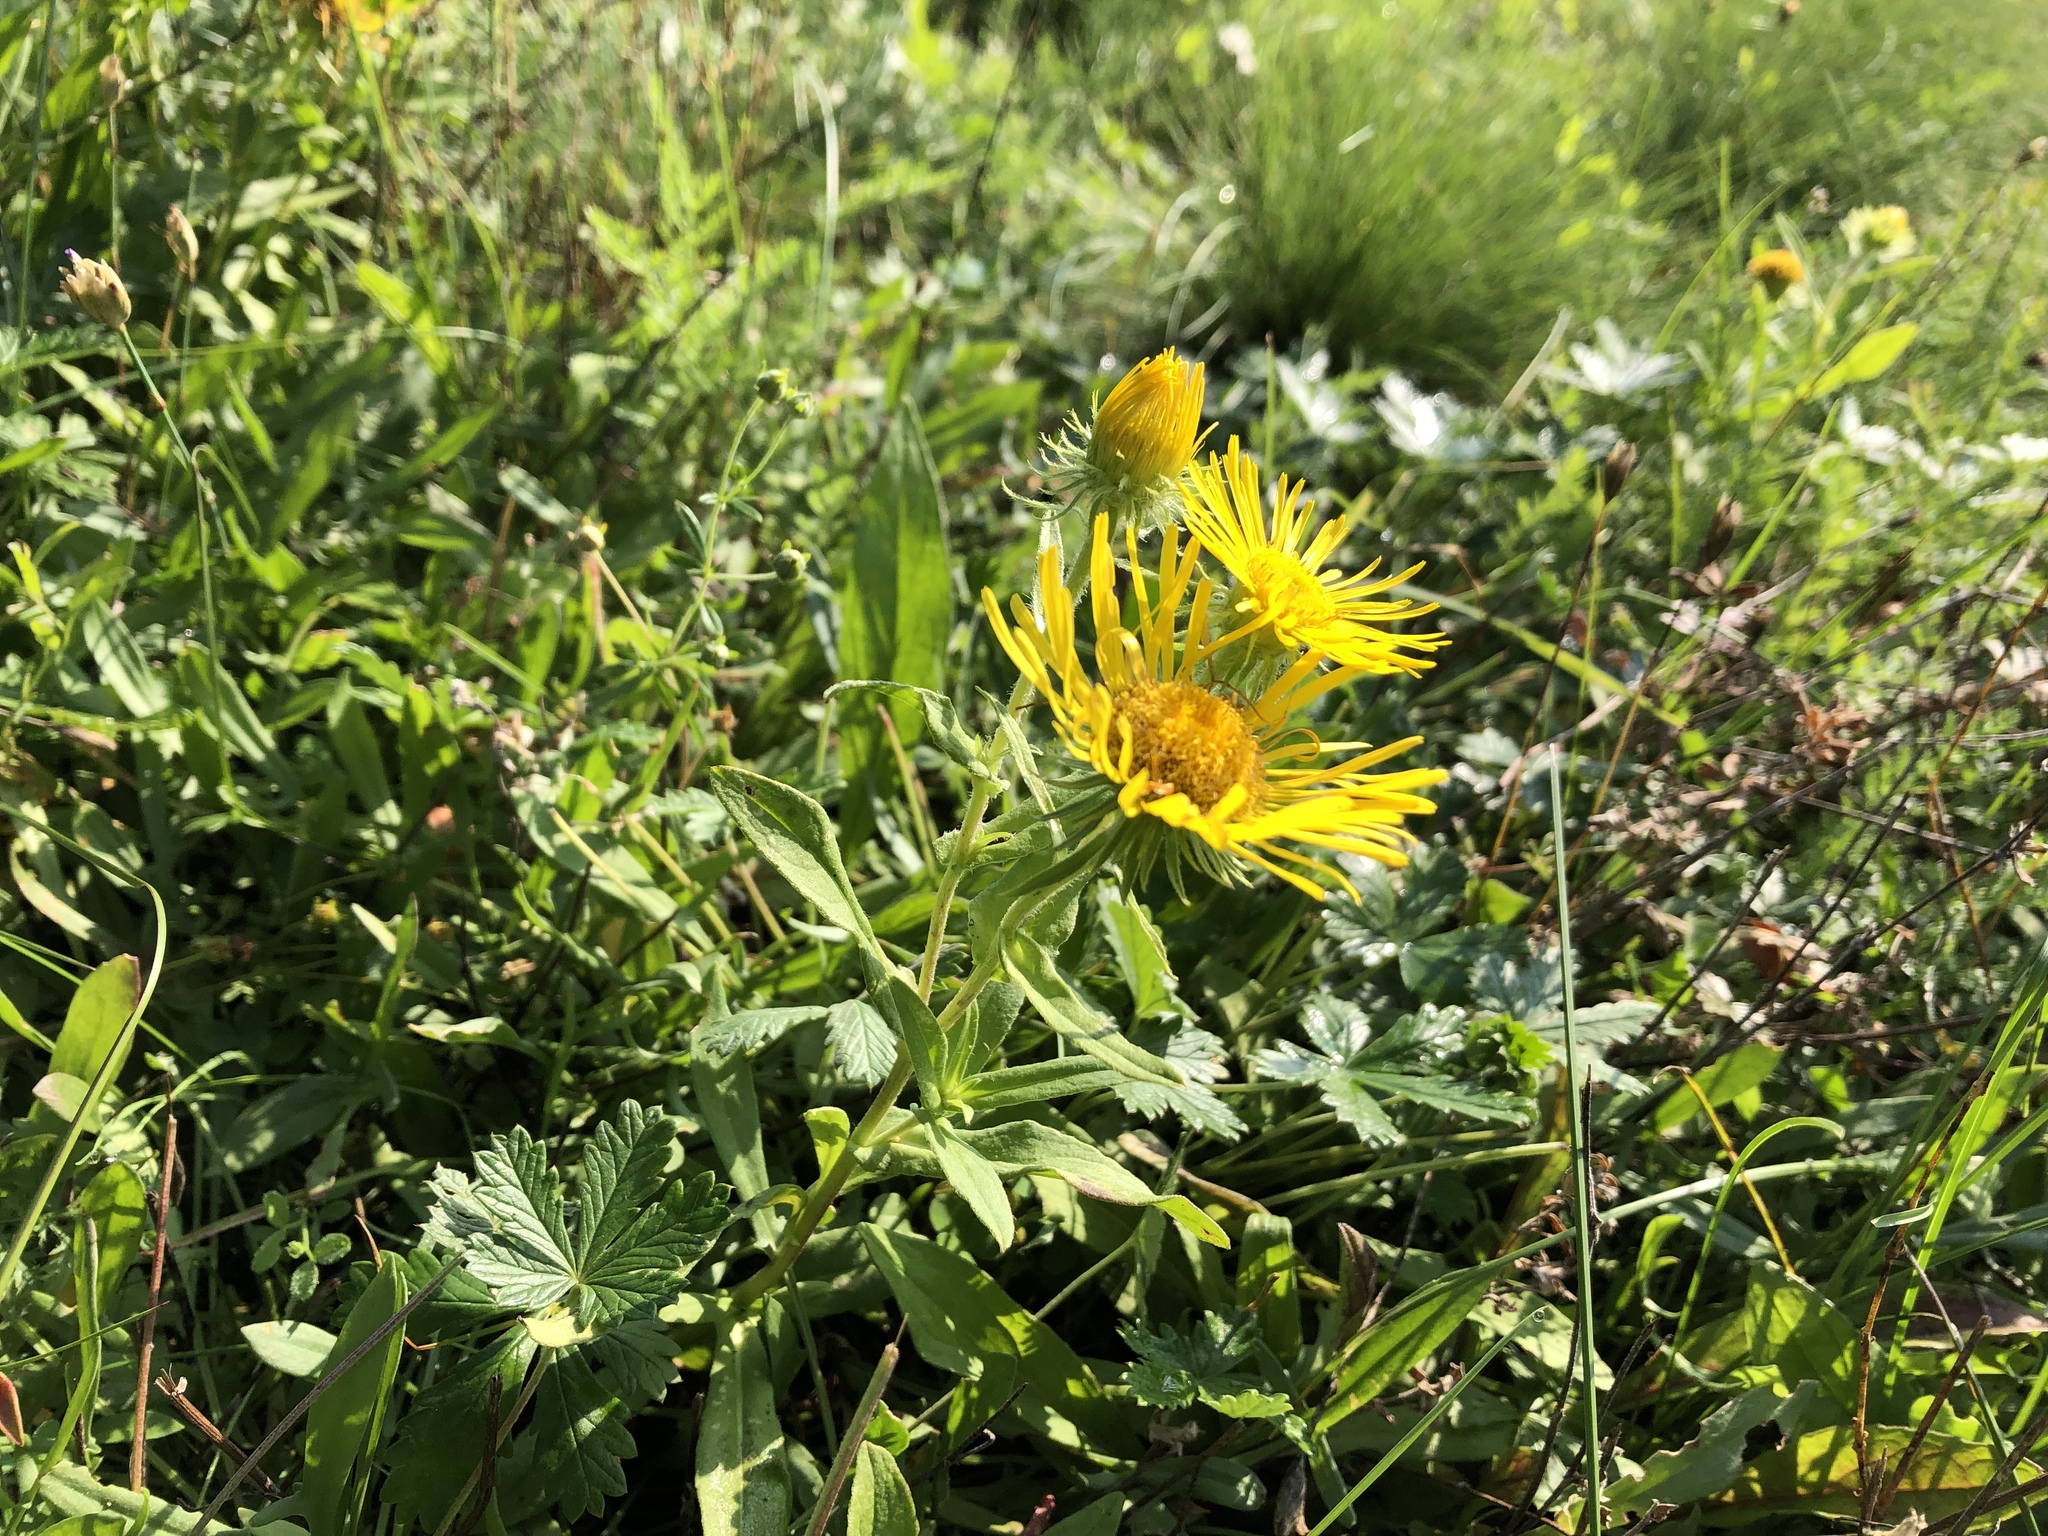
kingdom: Plantae
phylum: Tracheophyta
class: Magnoliopsida
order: Asterales
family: Asteraceae
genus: Pentanema
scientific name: Pentanema britannicum
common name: British elecampane
